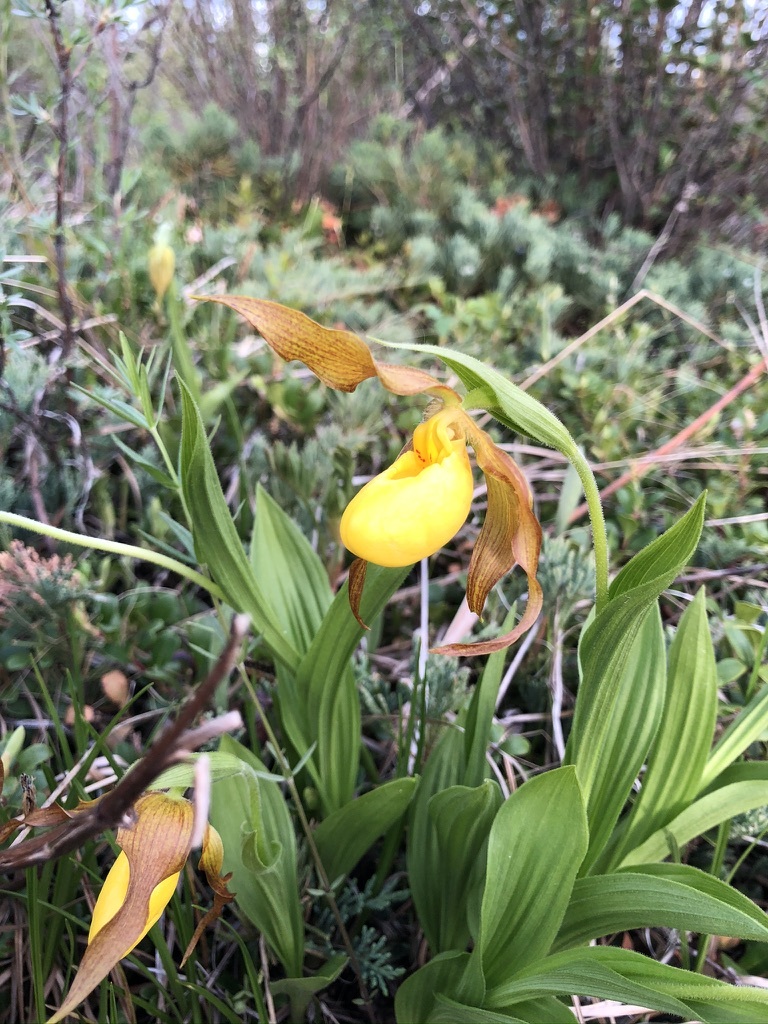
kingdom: Plantae
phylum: Tracheophyta
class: Liliopsida
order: Asparagales
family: Orchidaceae
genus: Cypripedium
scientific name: Cypripedium parviflorum
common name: American yellow lady's-slipper
